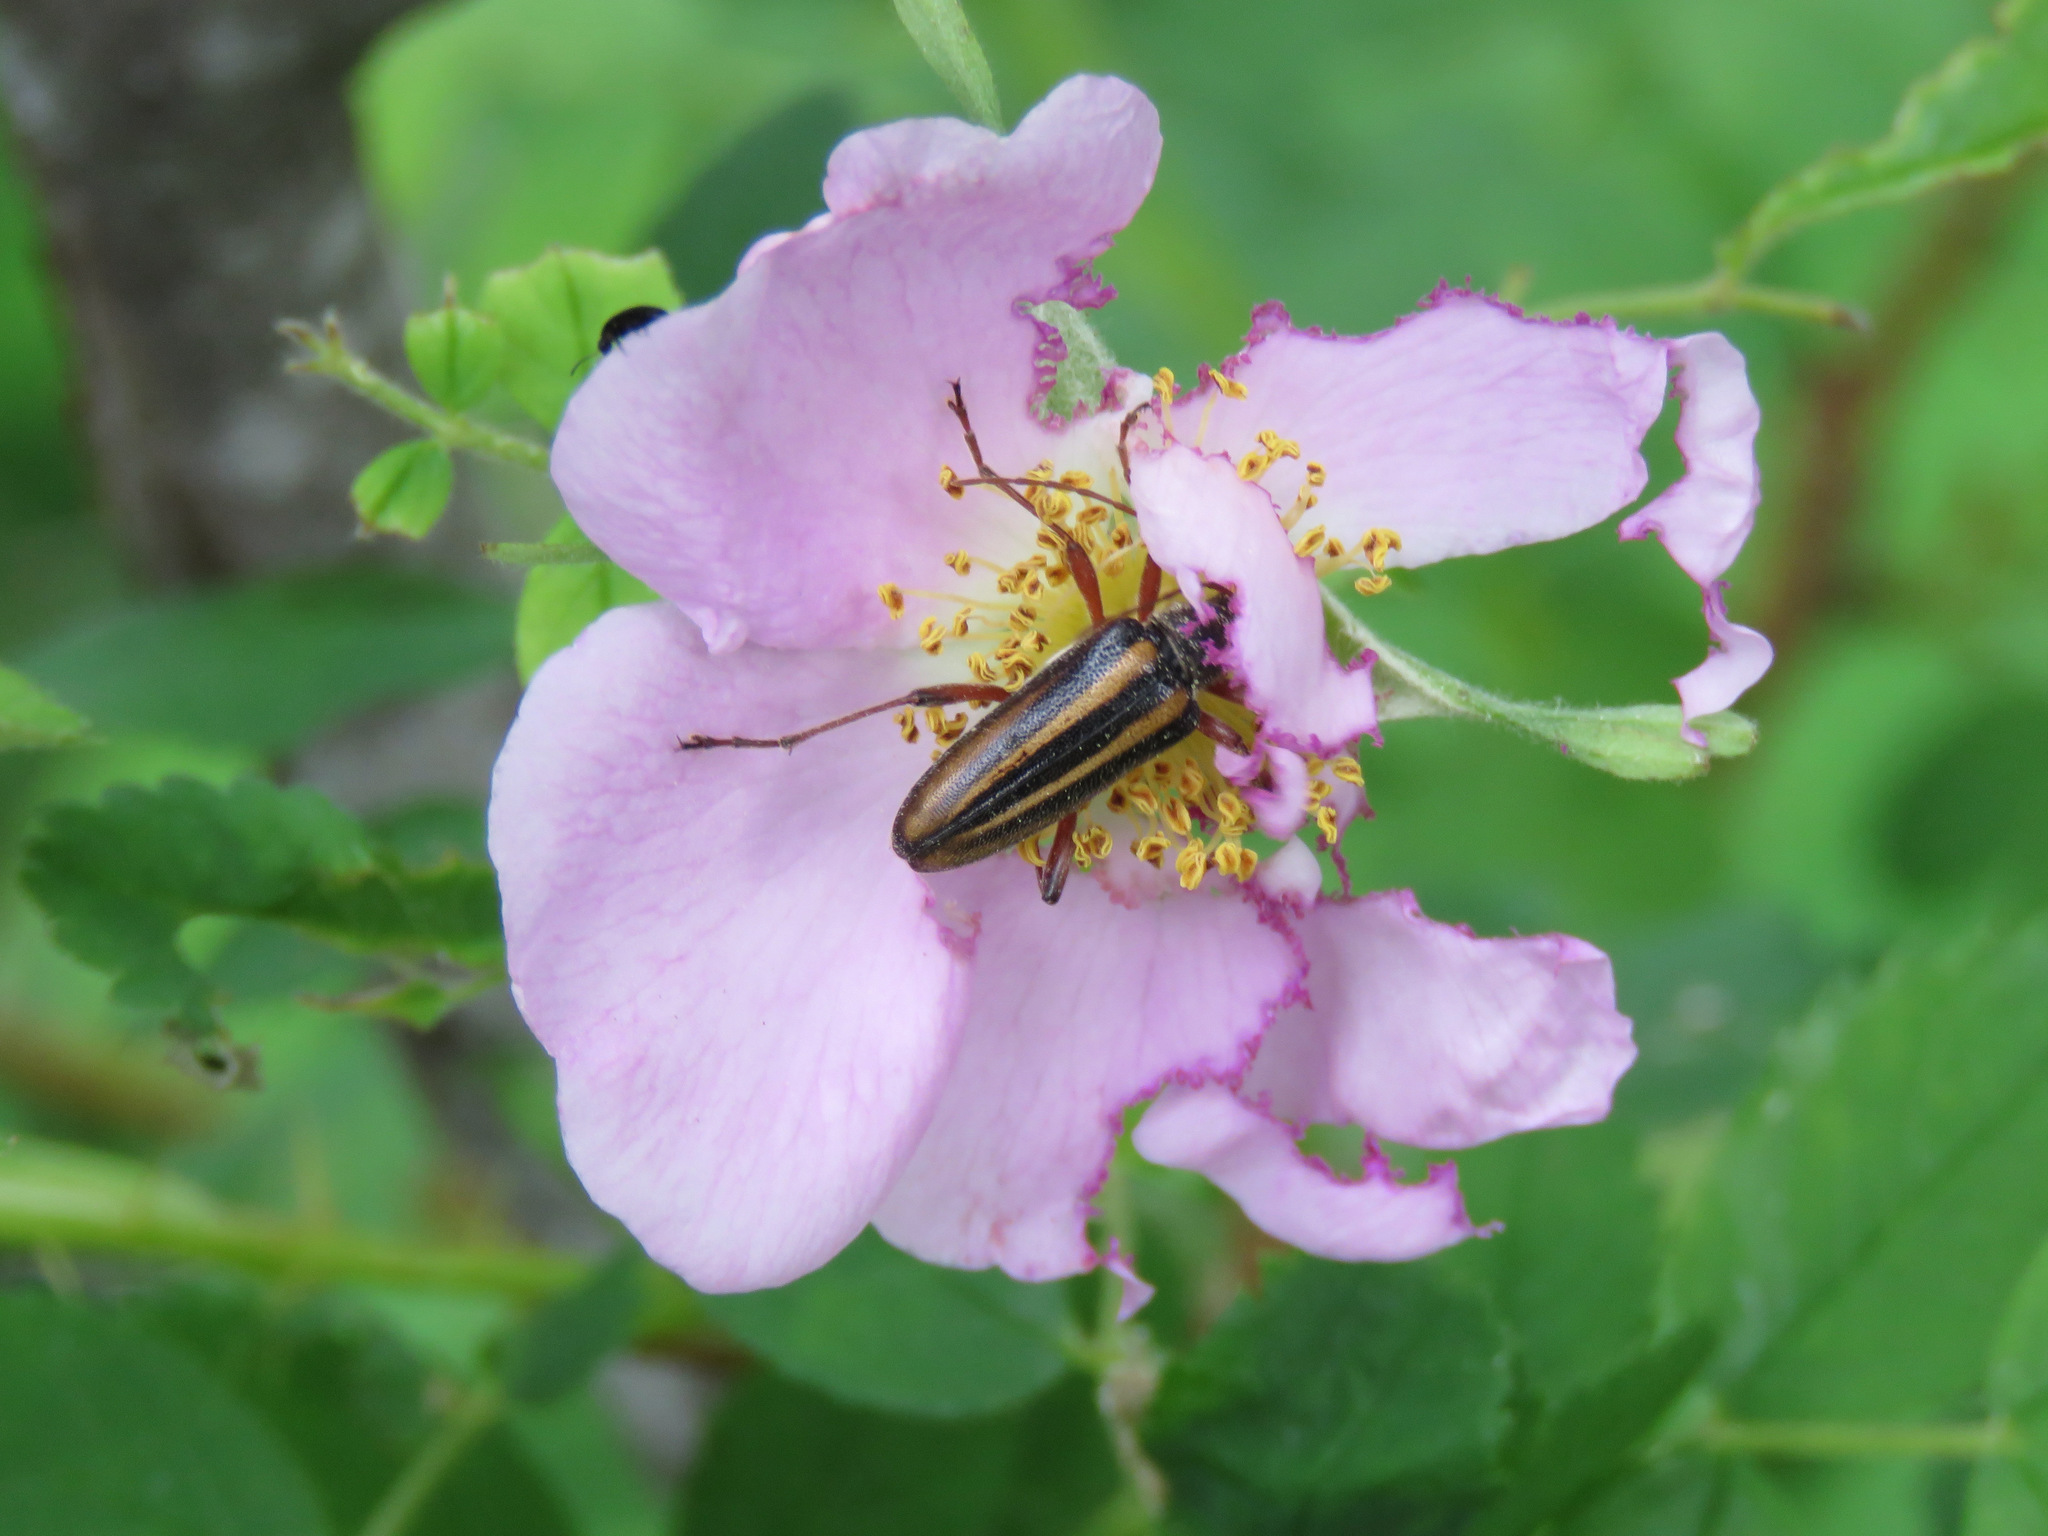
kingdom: Animalia
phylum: Arthropoda
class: Insecta
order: Coleoptera
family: Cerambycidae
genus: Cortodera
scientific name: Cortodera longicornis
